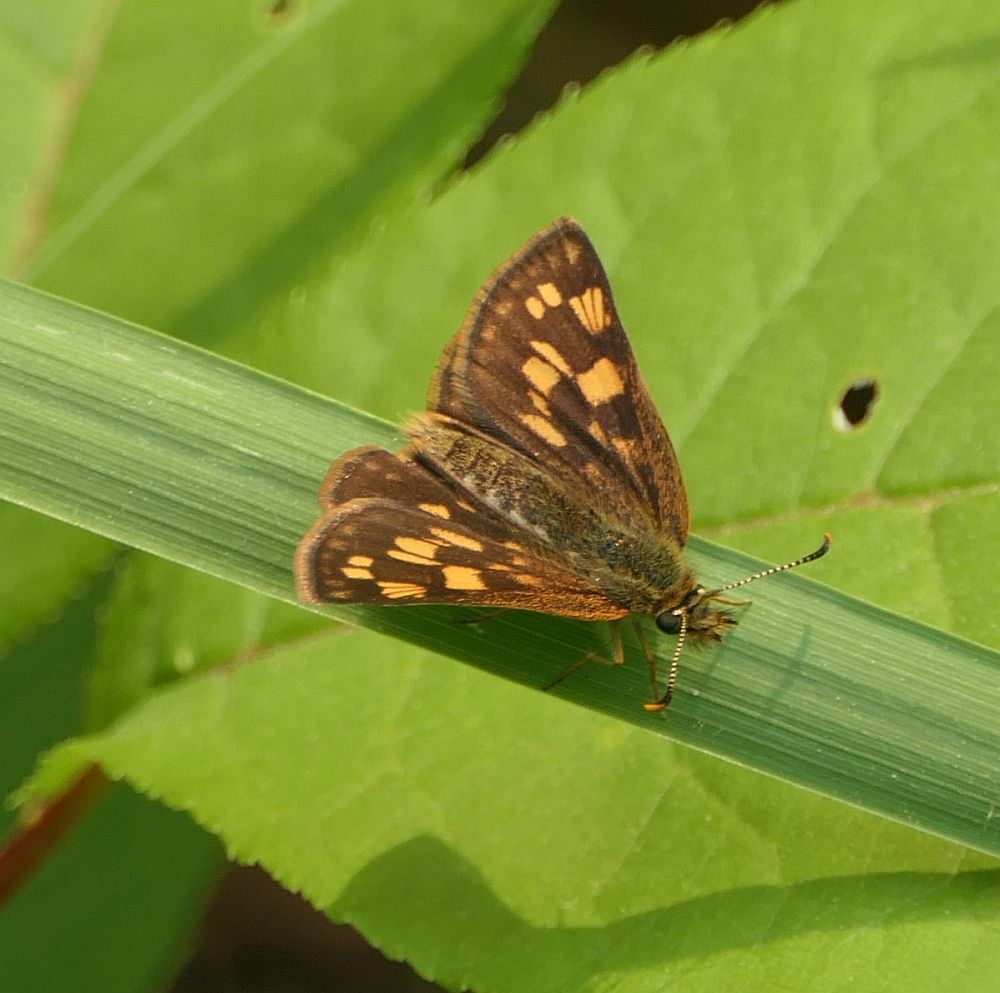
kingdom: Animalia
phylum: Arthropoda
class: Insecta
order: Lepidoptera
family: Hesperiidae
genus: Carterocephalus
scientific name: Carterocephalus mandan
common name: Arctic skipperling
